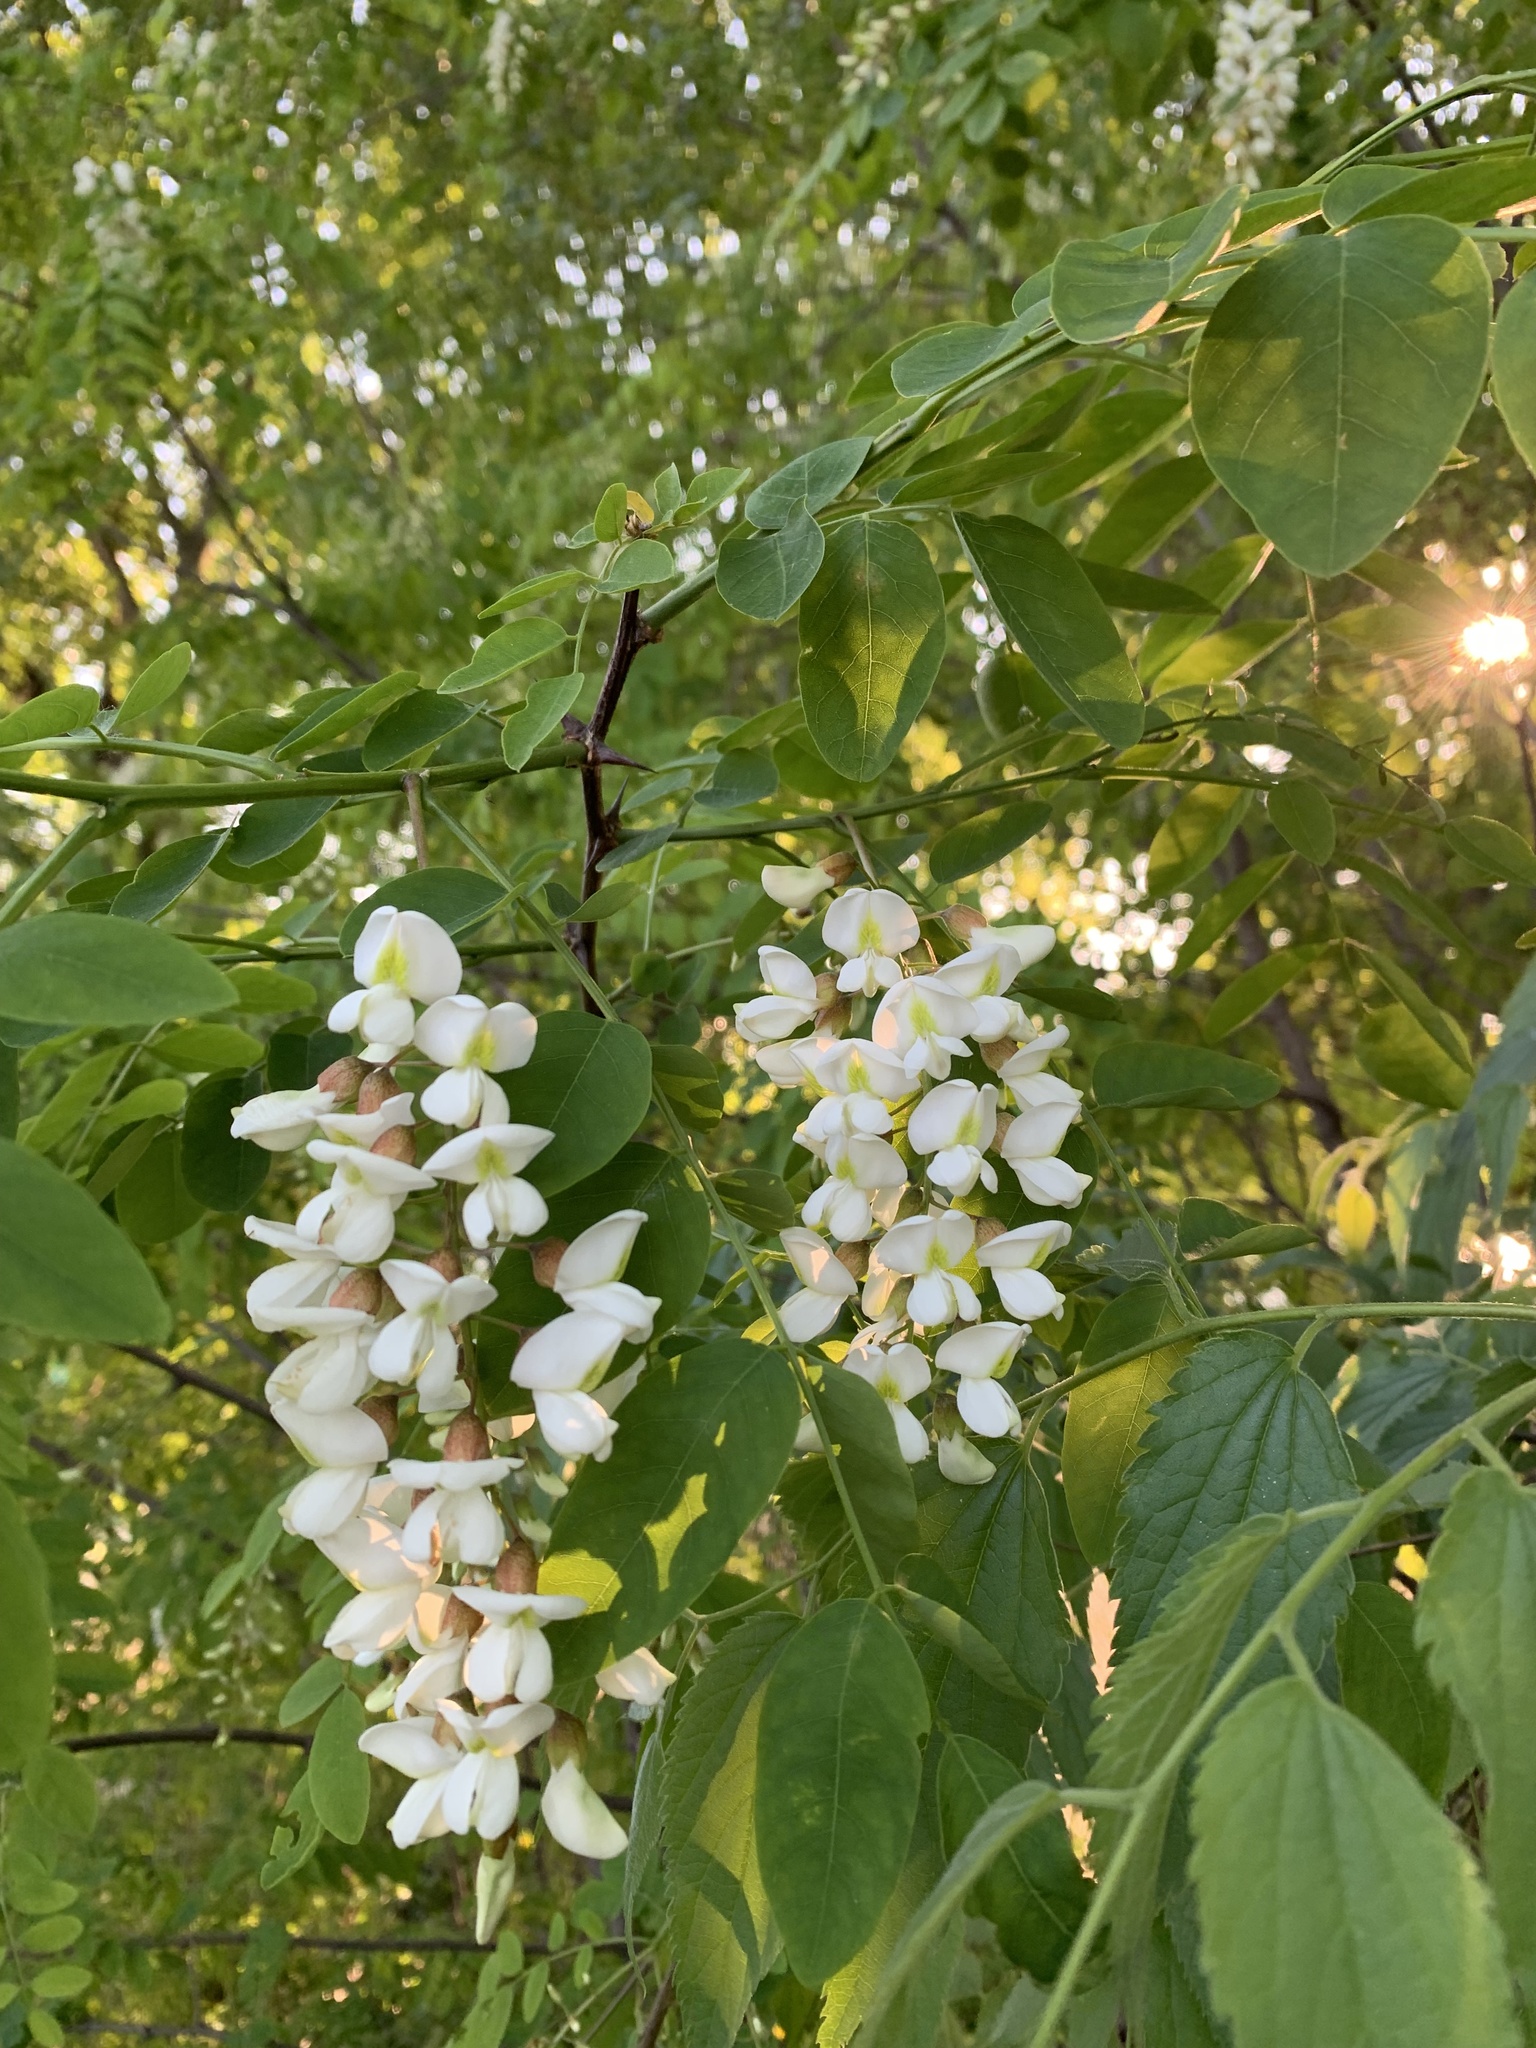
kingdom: Plantae
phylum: Tracheophyta
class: Magnoliopsida
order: Fabales
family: Fabaceae
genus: Robinia
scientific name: Robinia pseudoacacia
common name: Black locust
